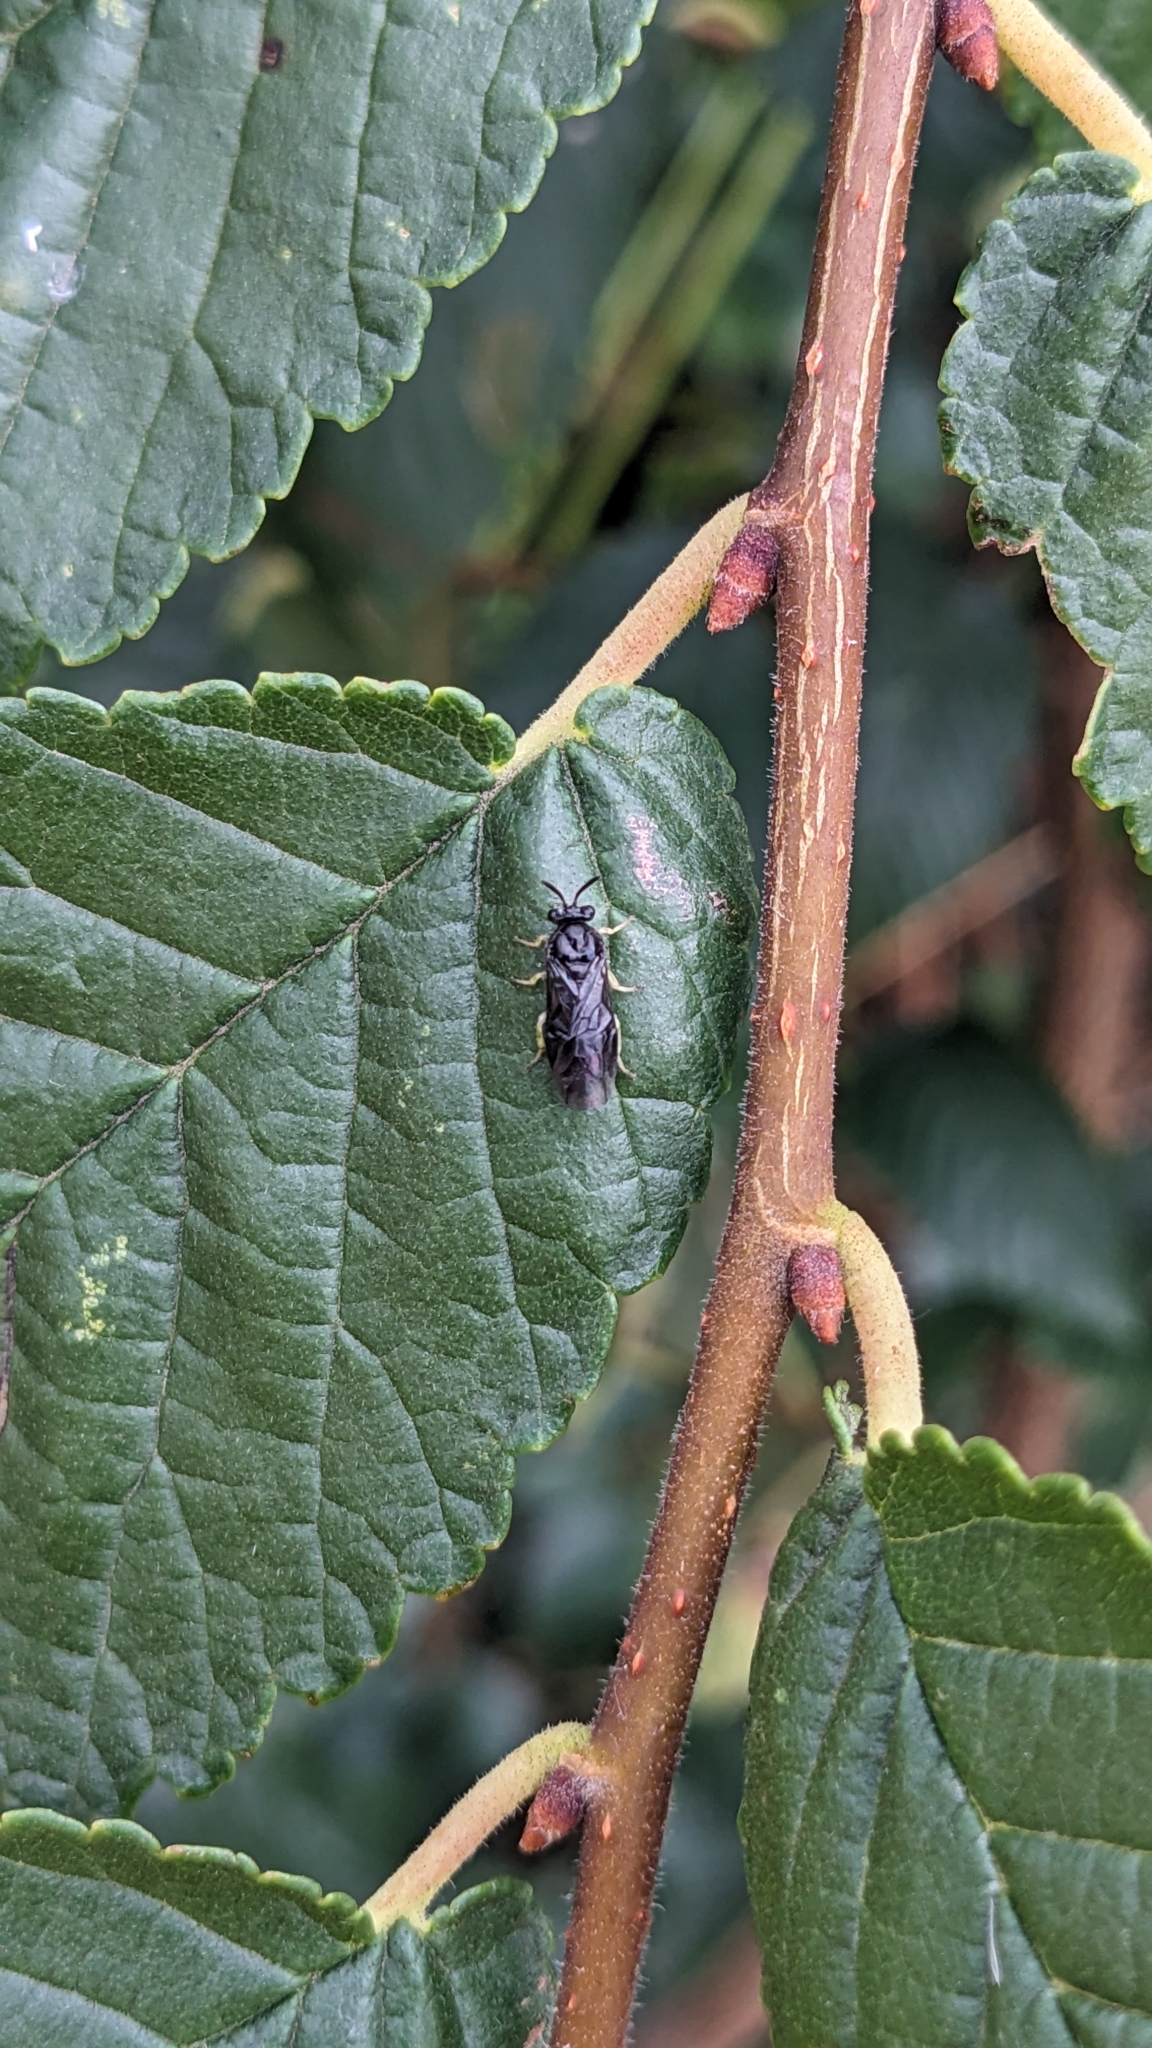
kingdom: Animalia
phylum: Arthropoda
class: Insecta
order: Hymenoptera
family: Argidae
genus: Aproceros
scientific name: Aproceros leucopoda
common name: Zig-zag elm sawfly
